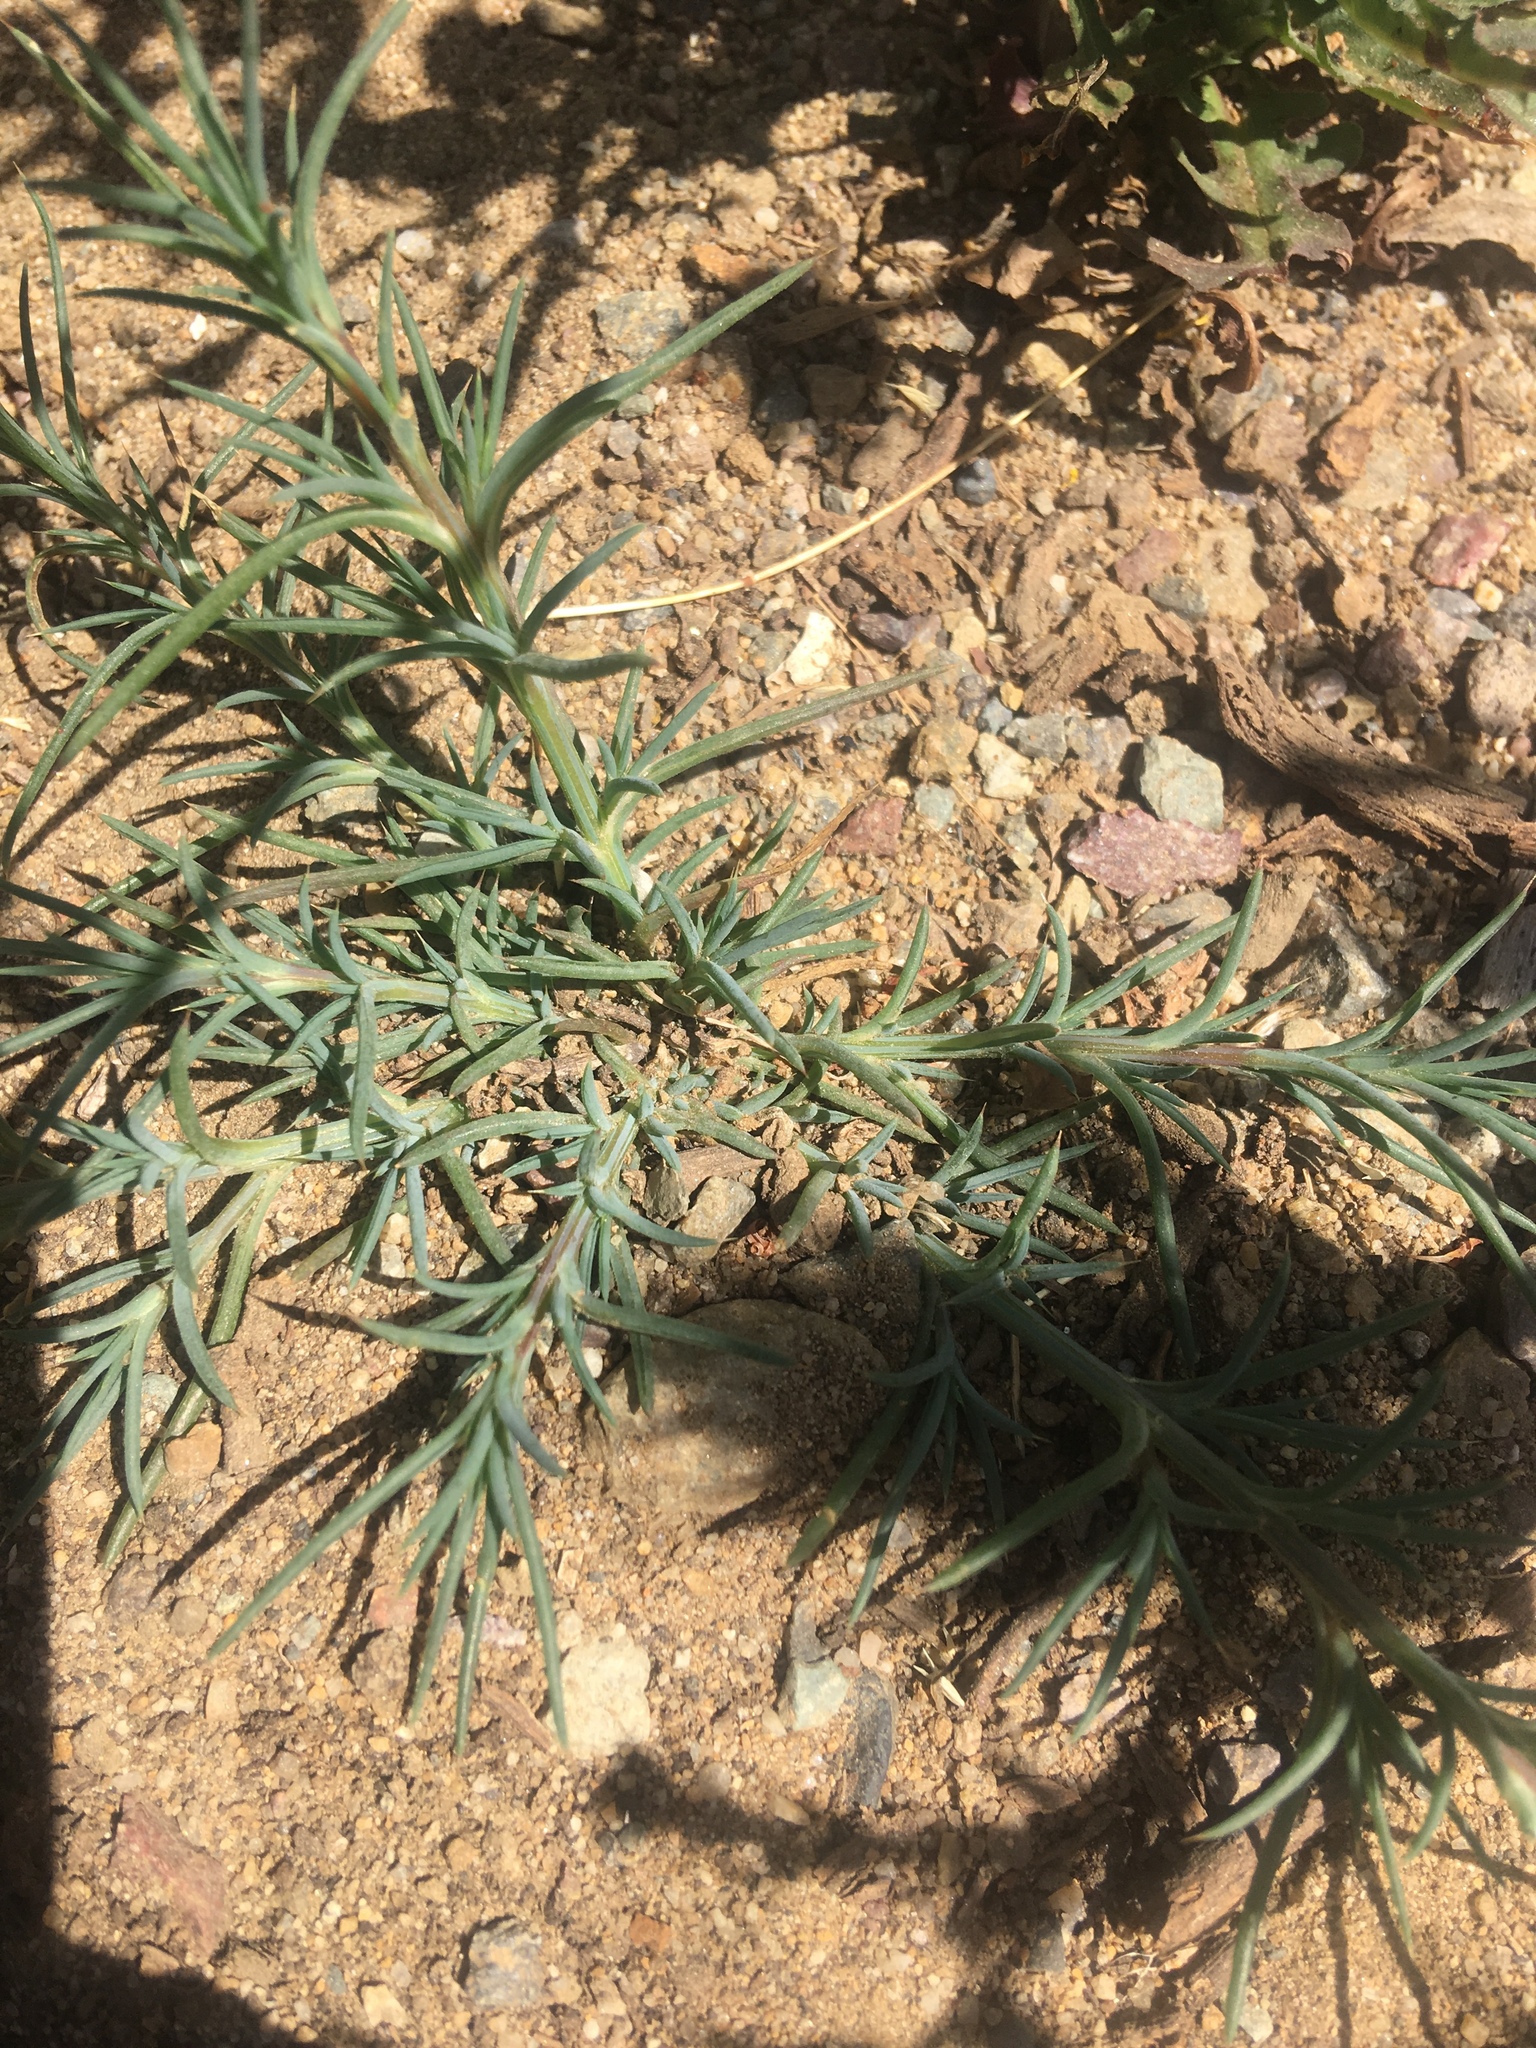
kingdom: Plantae
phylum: Tracheophyta
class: Magnoliopsida
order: Caryophyllales
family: Amaranthaceae
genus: Salsola
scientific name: Salsola tragus
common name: Prickly russian thistle
